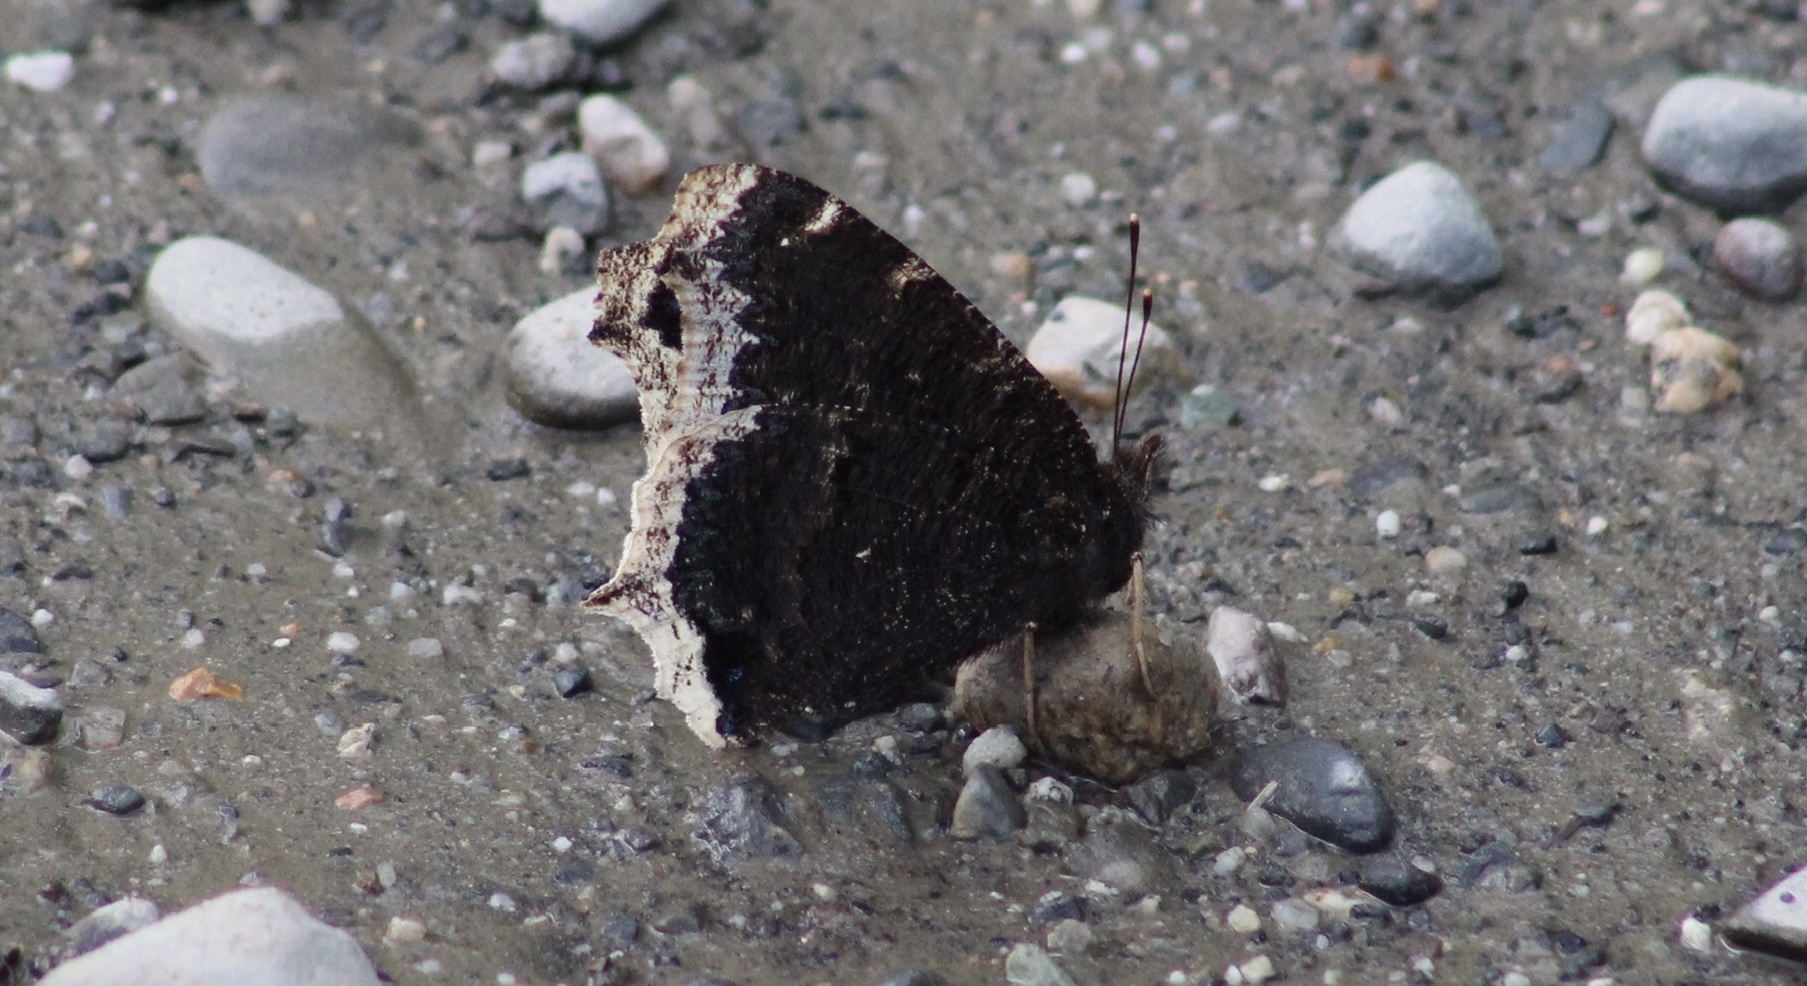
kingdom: Animalia
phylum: Arthropoda
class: Insecta
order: Lepidoptera
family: Nymphalidae
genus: Nymphalis
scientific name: Nymphalis antiopa
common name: Camberwell beauty
